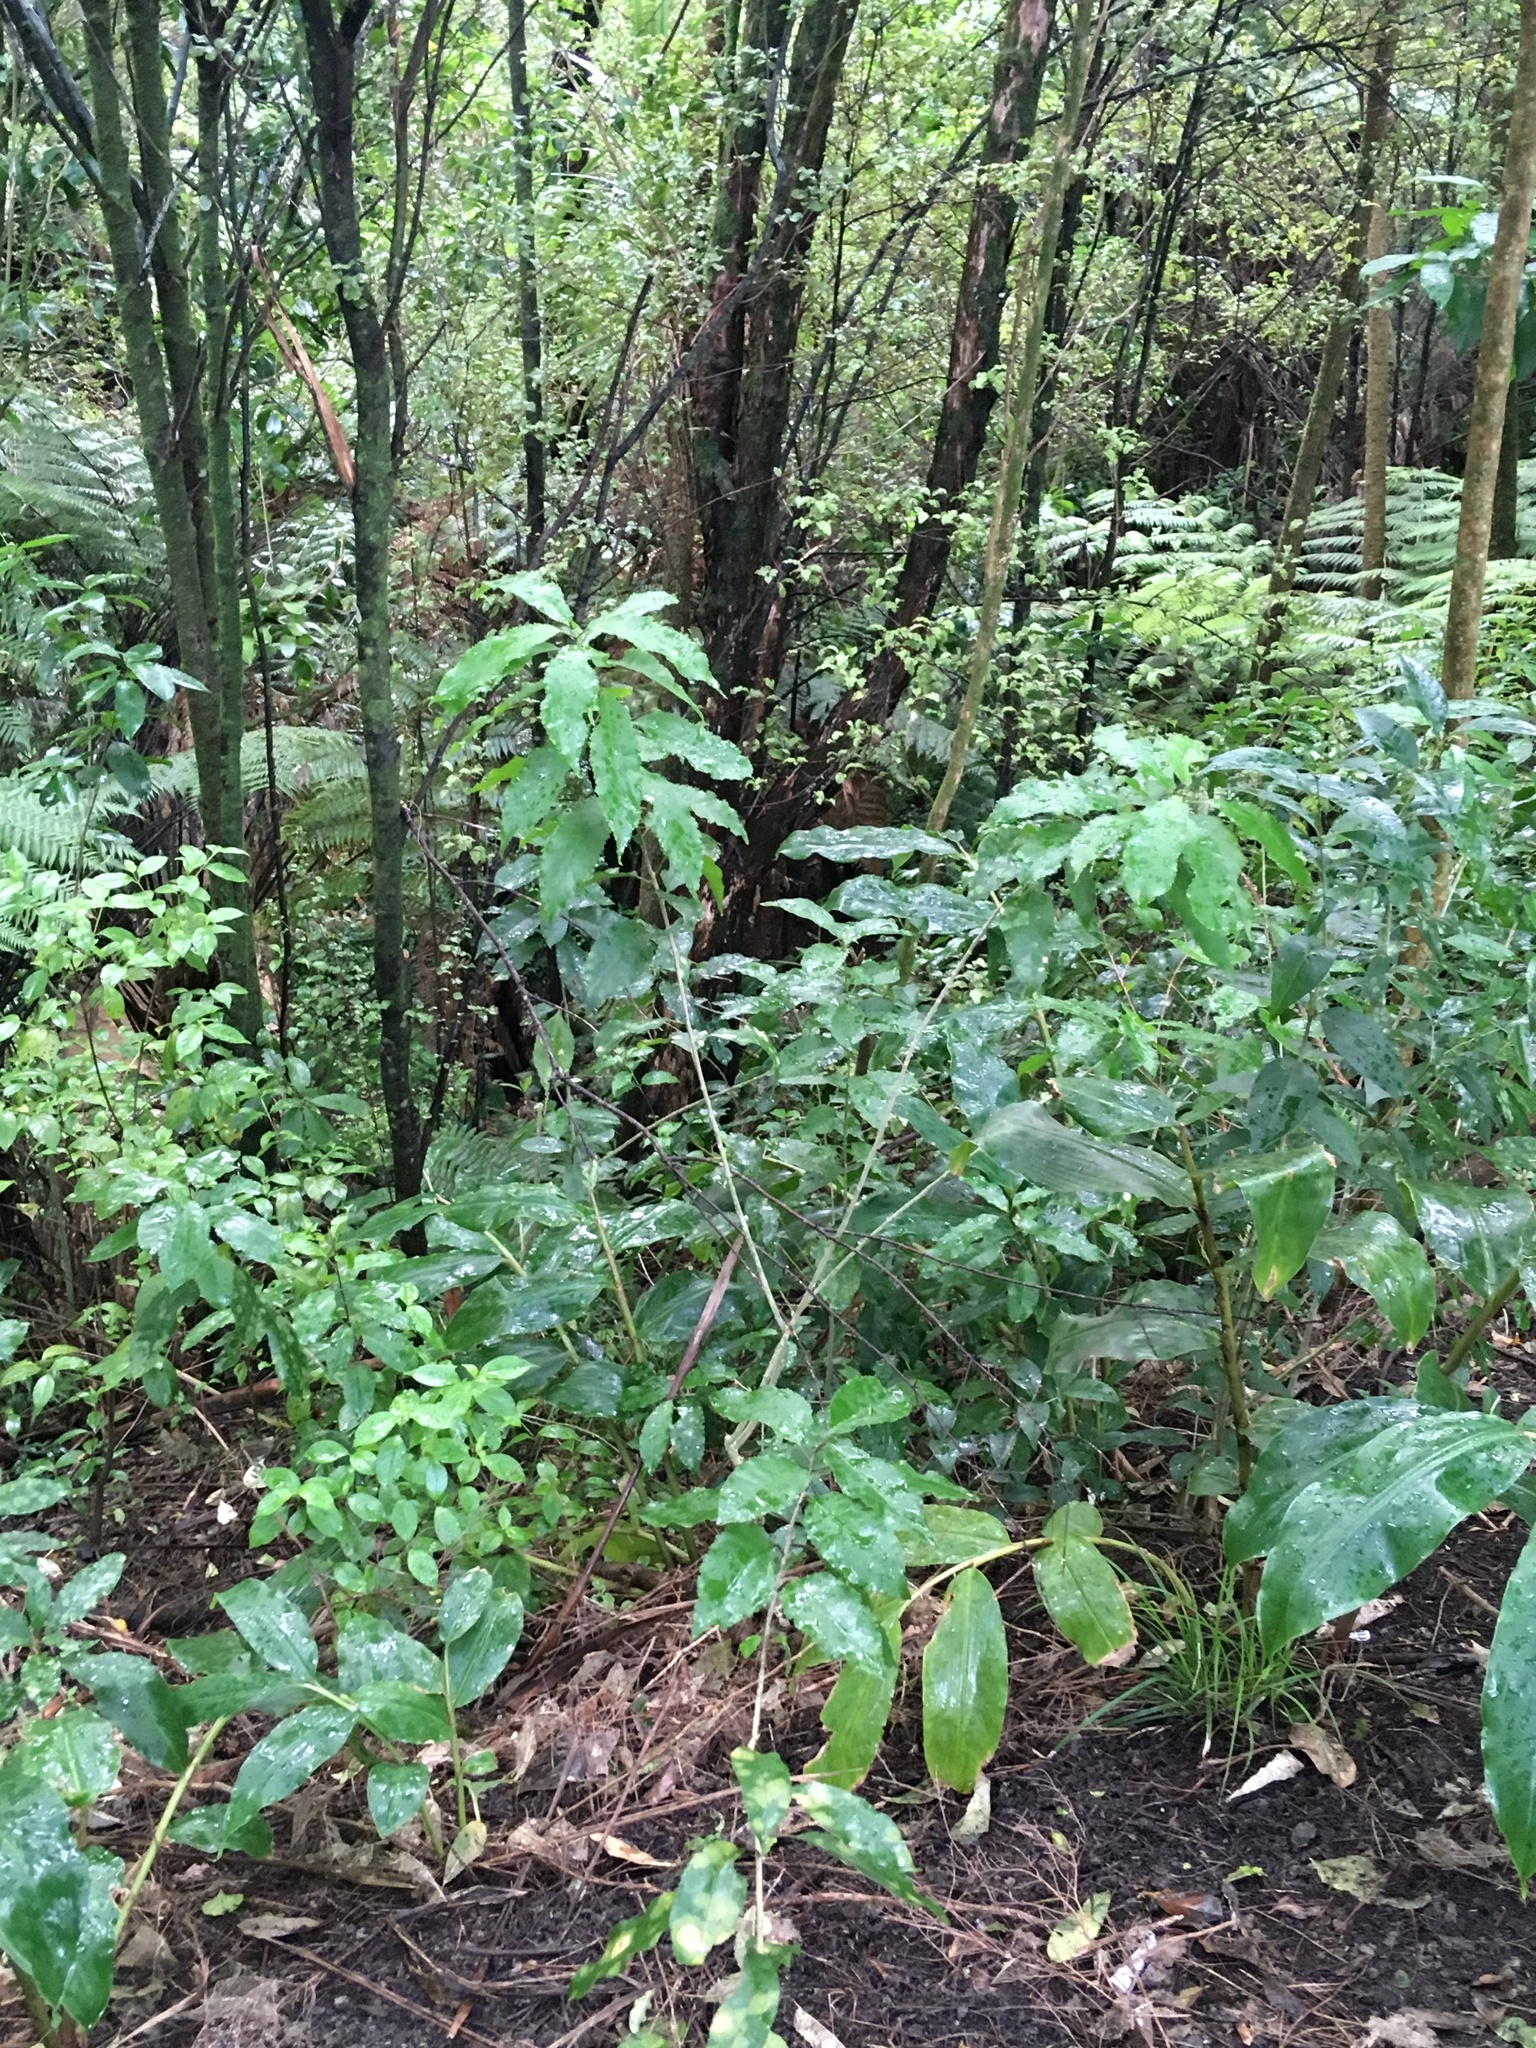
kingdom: Plantae
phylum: Tracheophyta
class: Liliopsida
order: Zingiberales
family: Zingiberaceae
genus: Hedychium
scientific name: Hedychium gardnerianum
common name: Himalayan ginger
